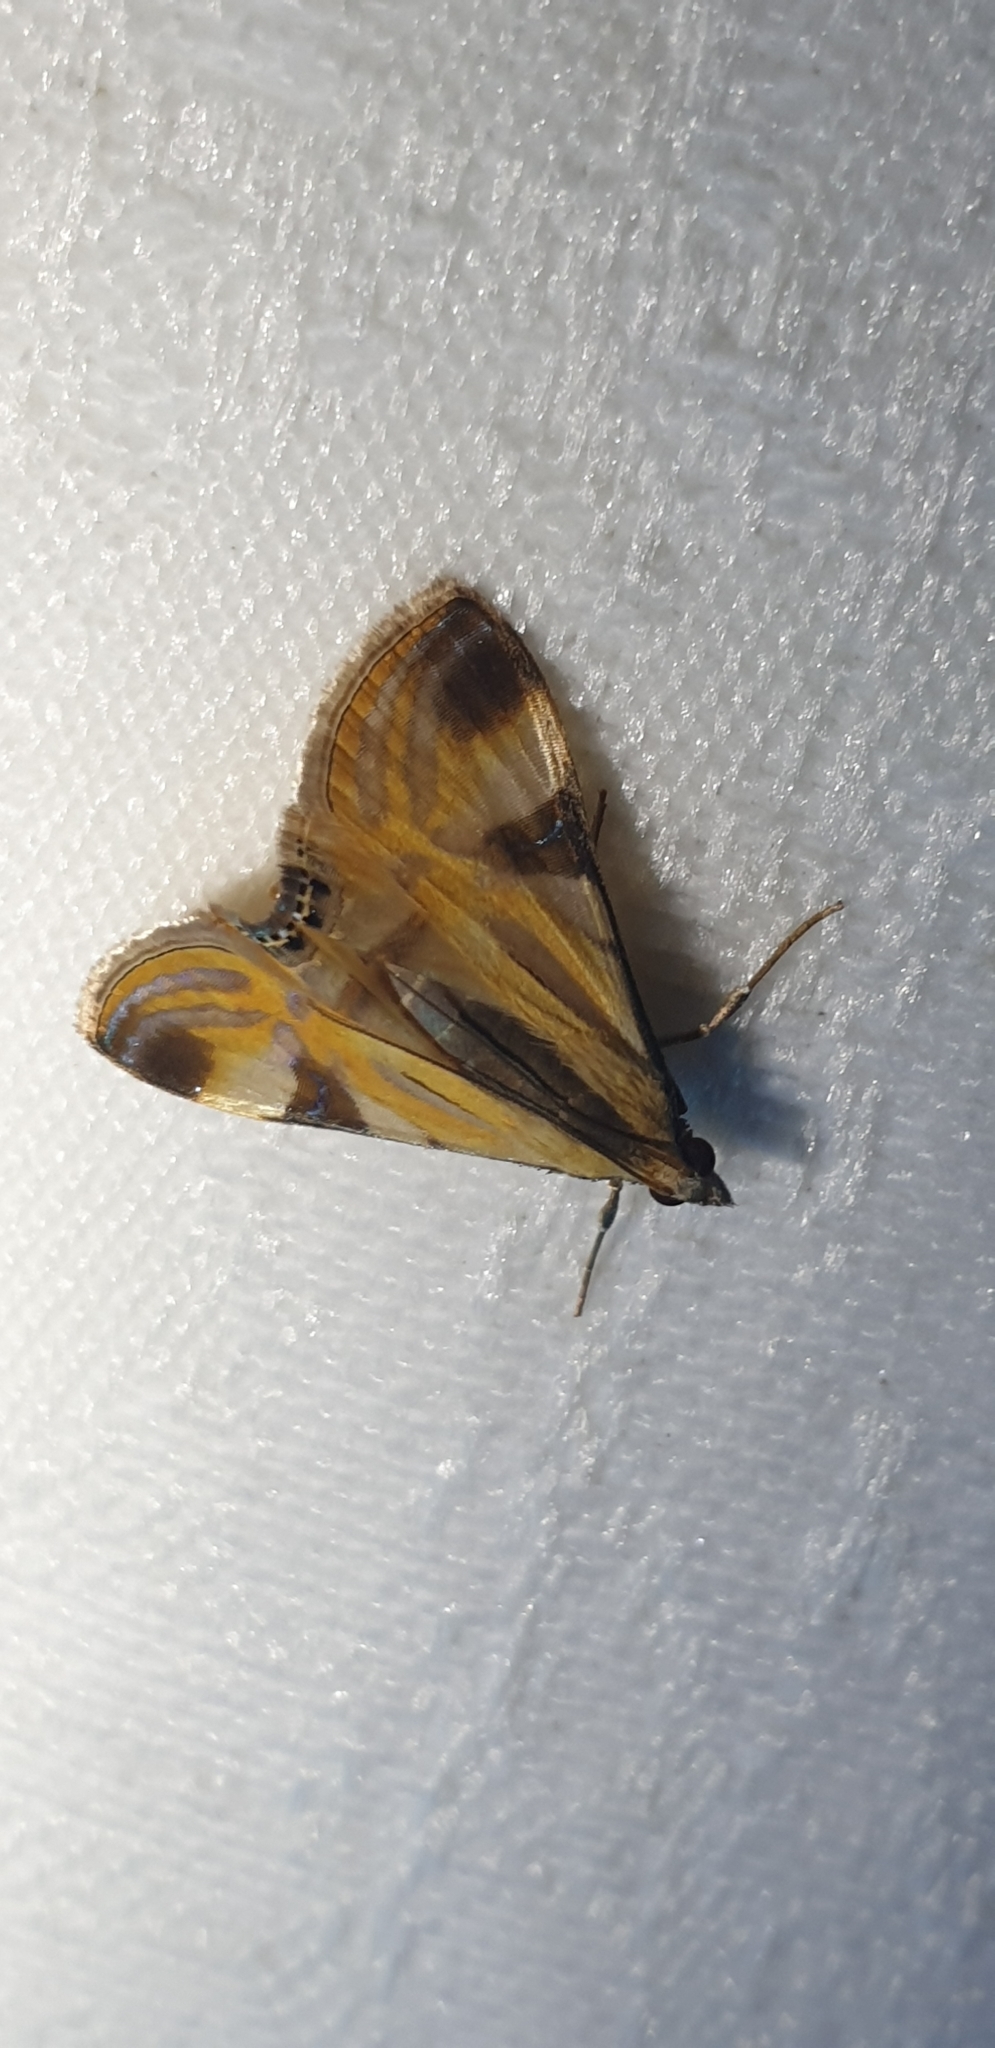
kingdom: Animalia
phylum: Arthropoda
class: Insecta
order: Lepidoptera
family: Crambidae
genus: Talanga
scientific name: Talanga tolumnialis
